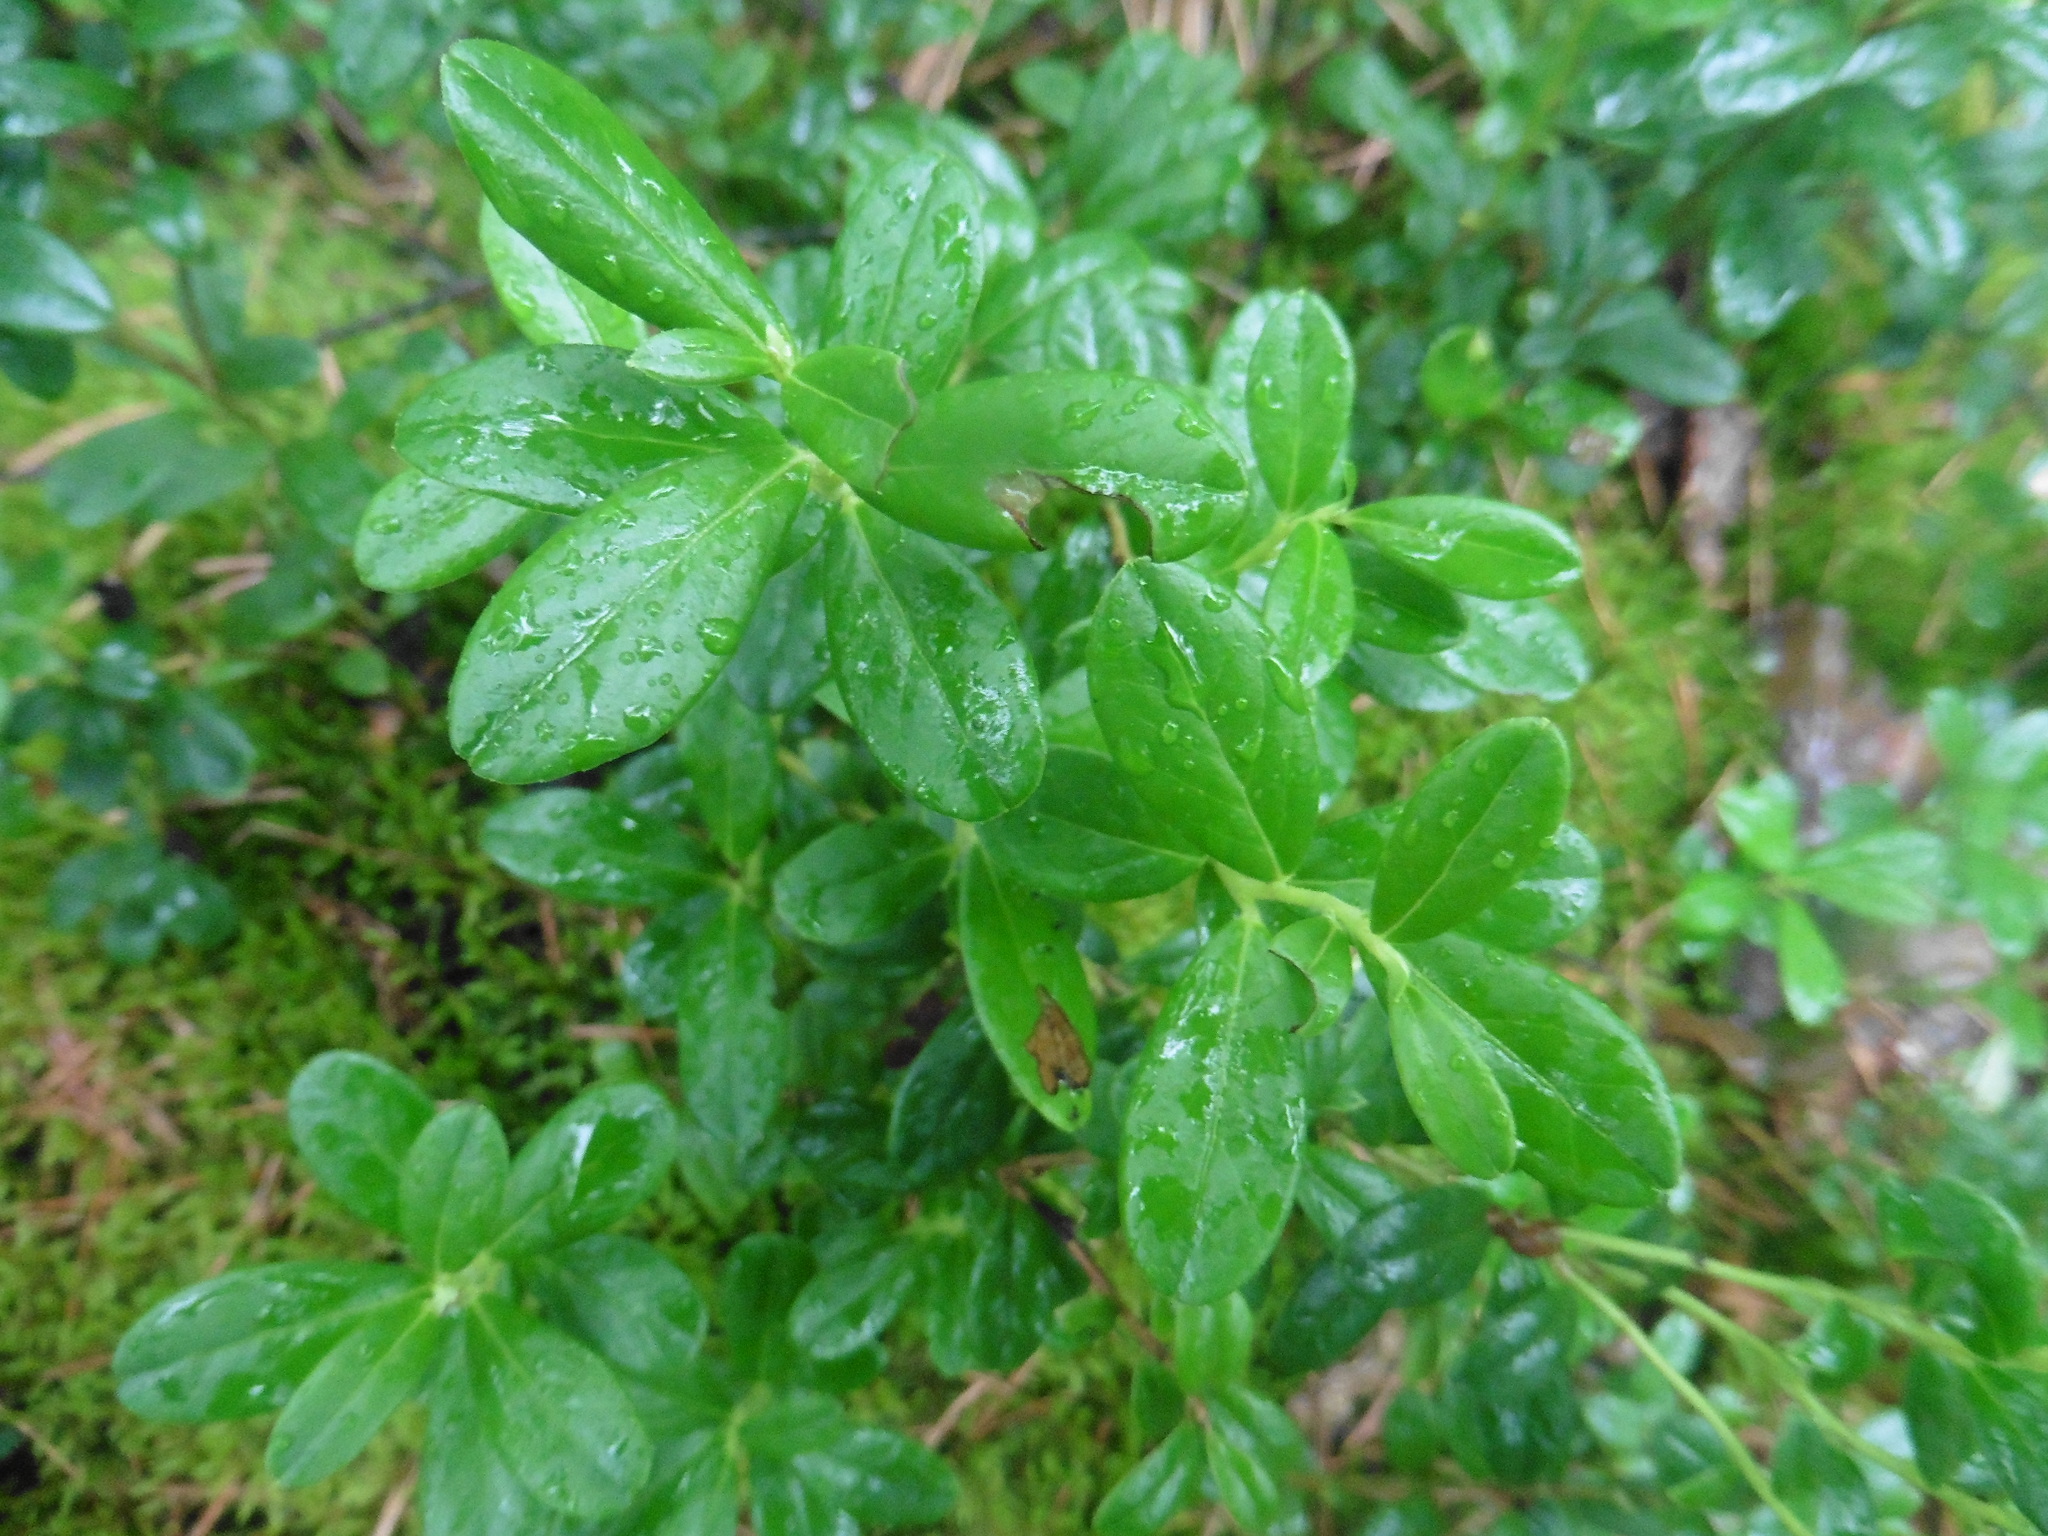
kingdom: Plantae
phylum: Tracheophyta
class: Magnoliopsida
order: Ericales
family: Ericaceae
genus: Vaccinium
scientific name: Vaccinium vitis-idaea
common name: Cowberry
